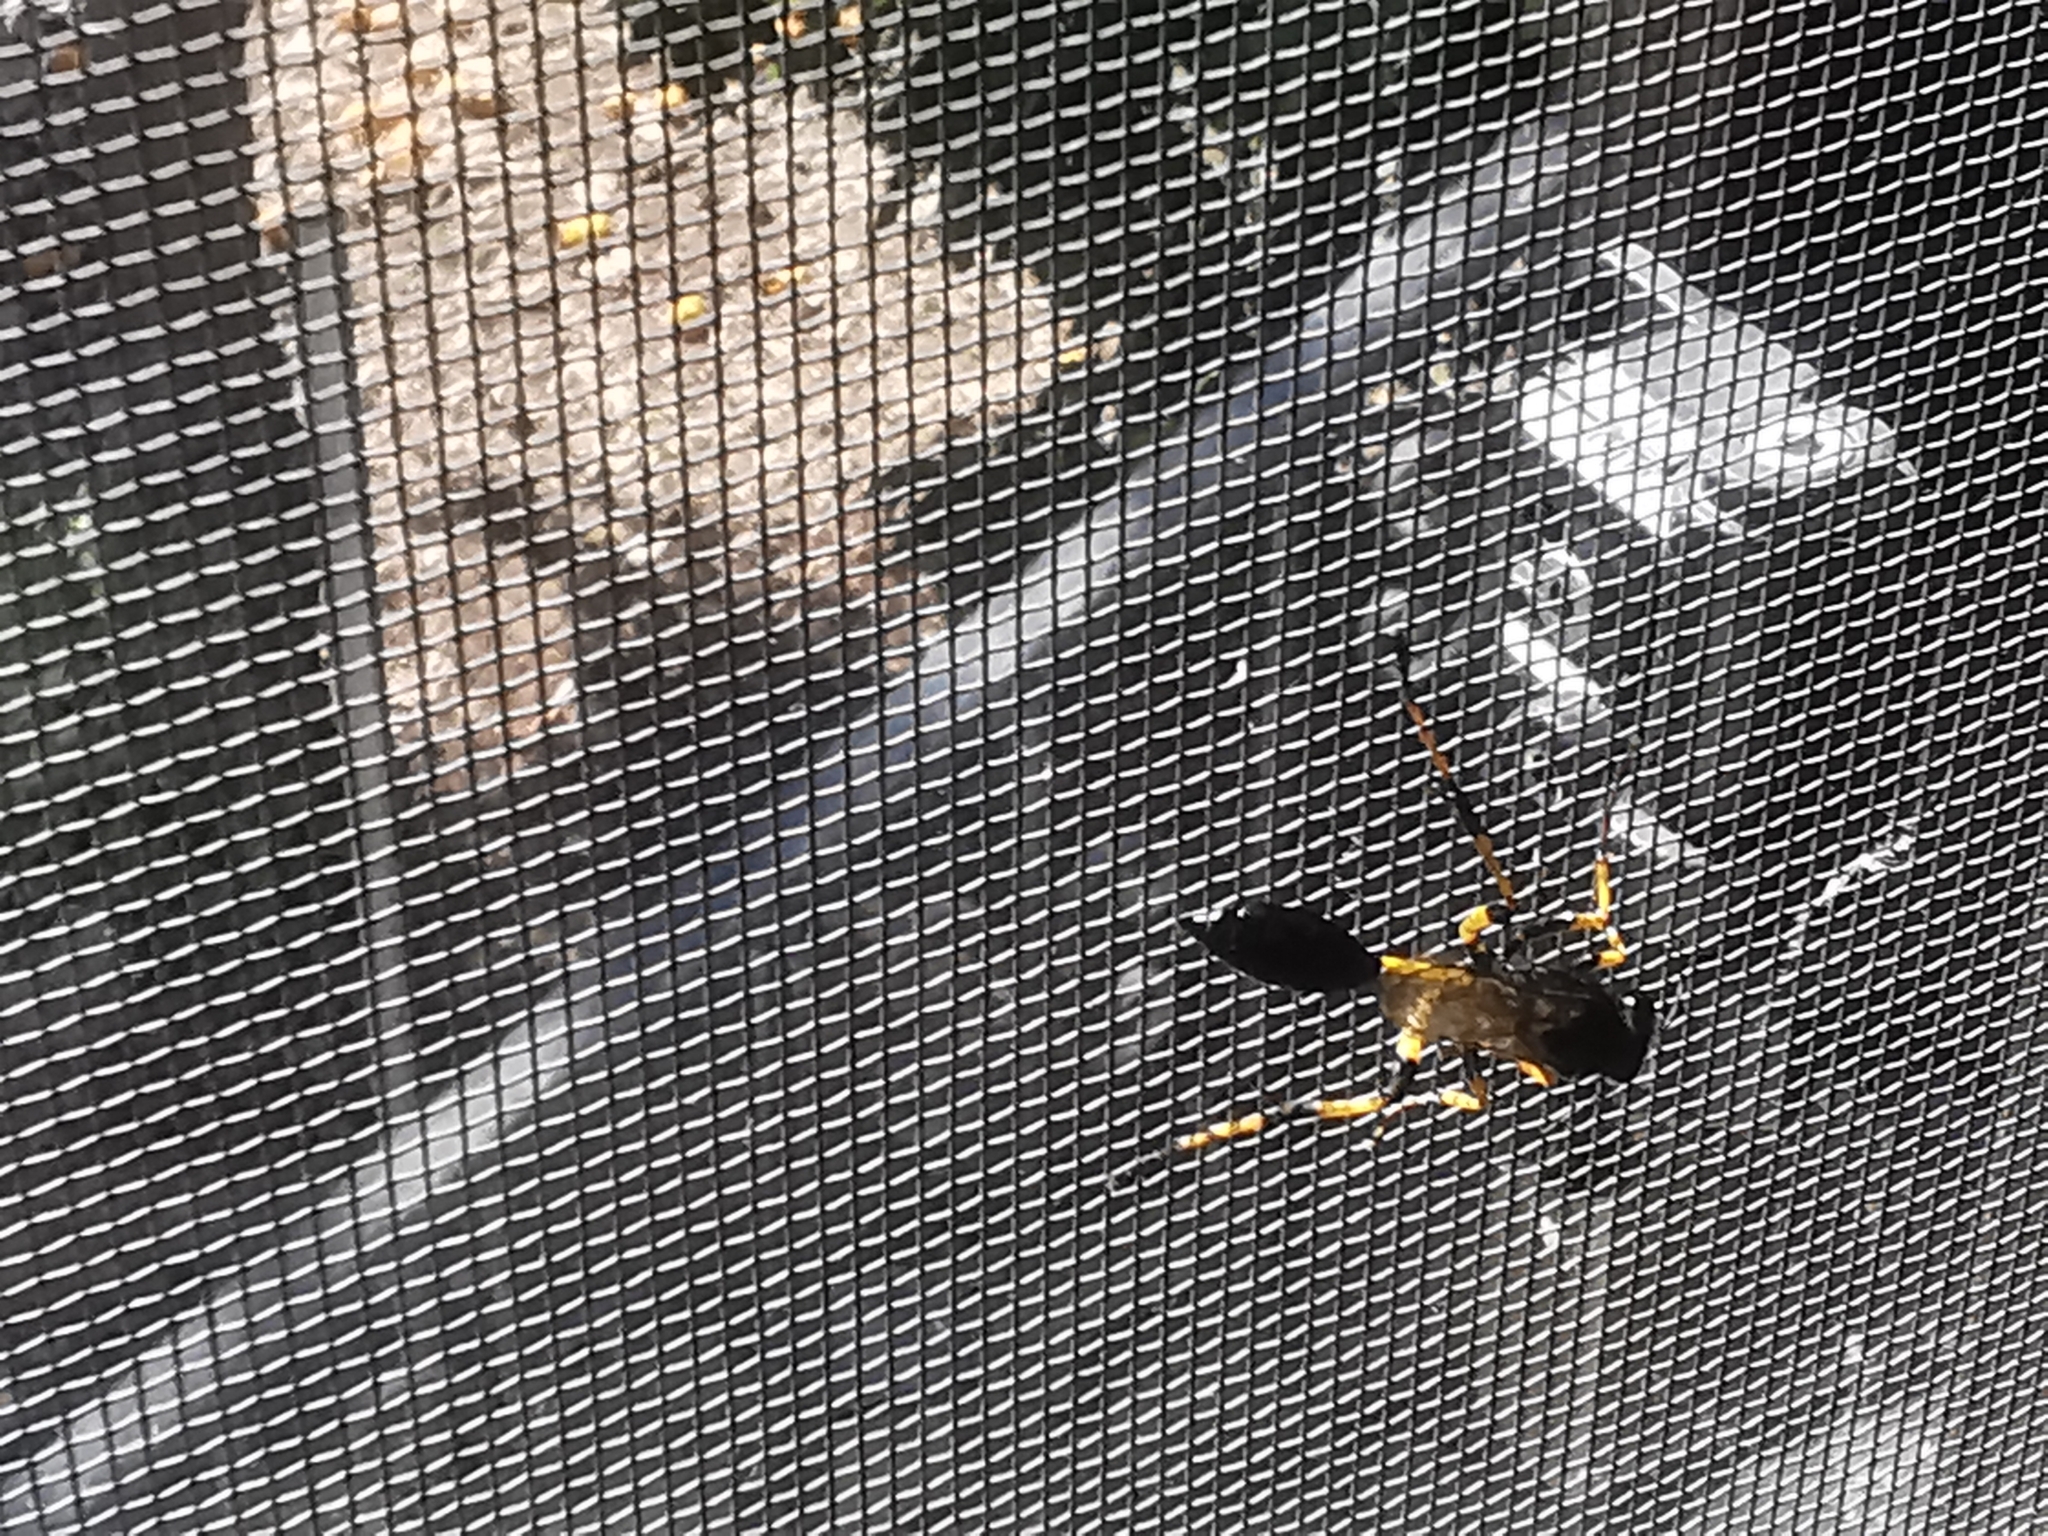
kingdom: Animalia
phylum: Arthropoda
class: Insecta
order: Hymenoptera
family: Sphecidae
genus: Sceliphron
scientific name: Sceliphron spirifex
